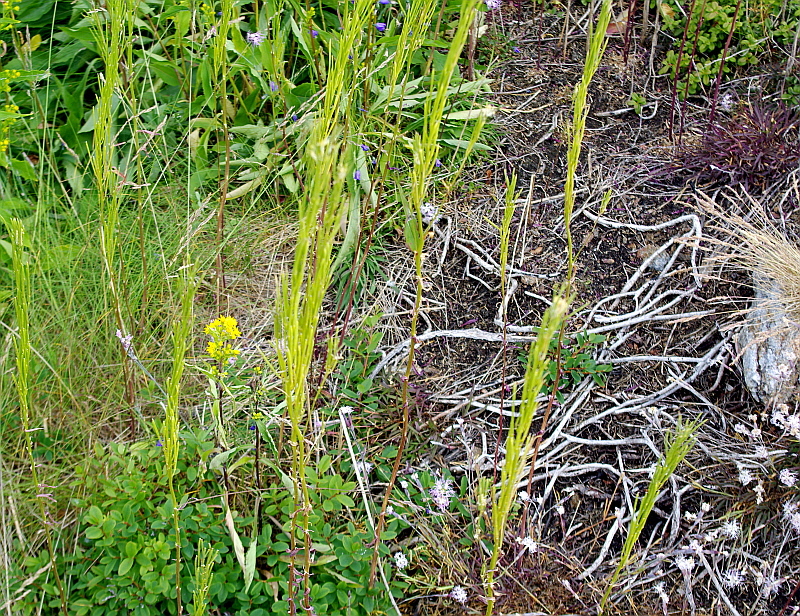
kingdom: Plantae
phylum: Tracheophyta
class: Magnoliopsida
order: Brassicales
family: Brassicaceae
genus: Barbarea
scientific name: Barbarea stricta
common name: Small-flowered winter-cress
